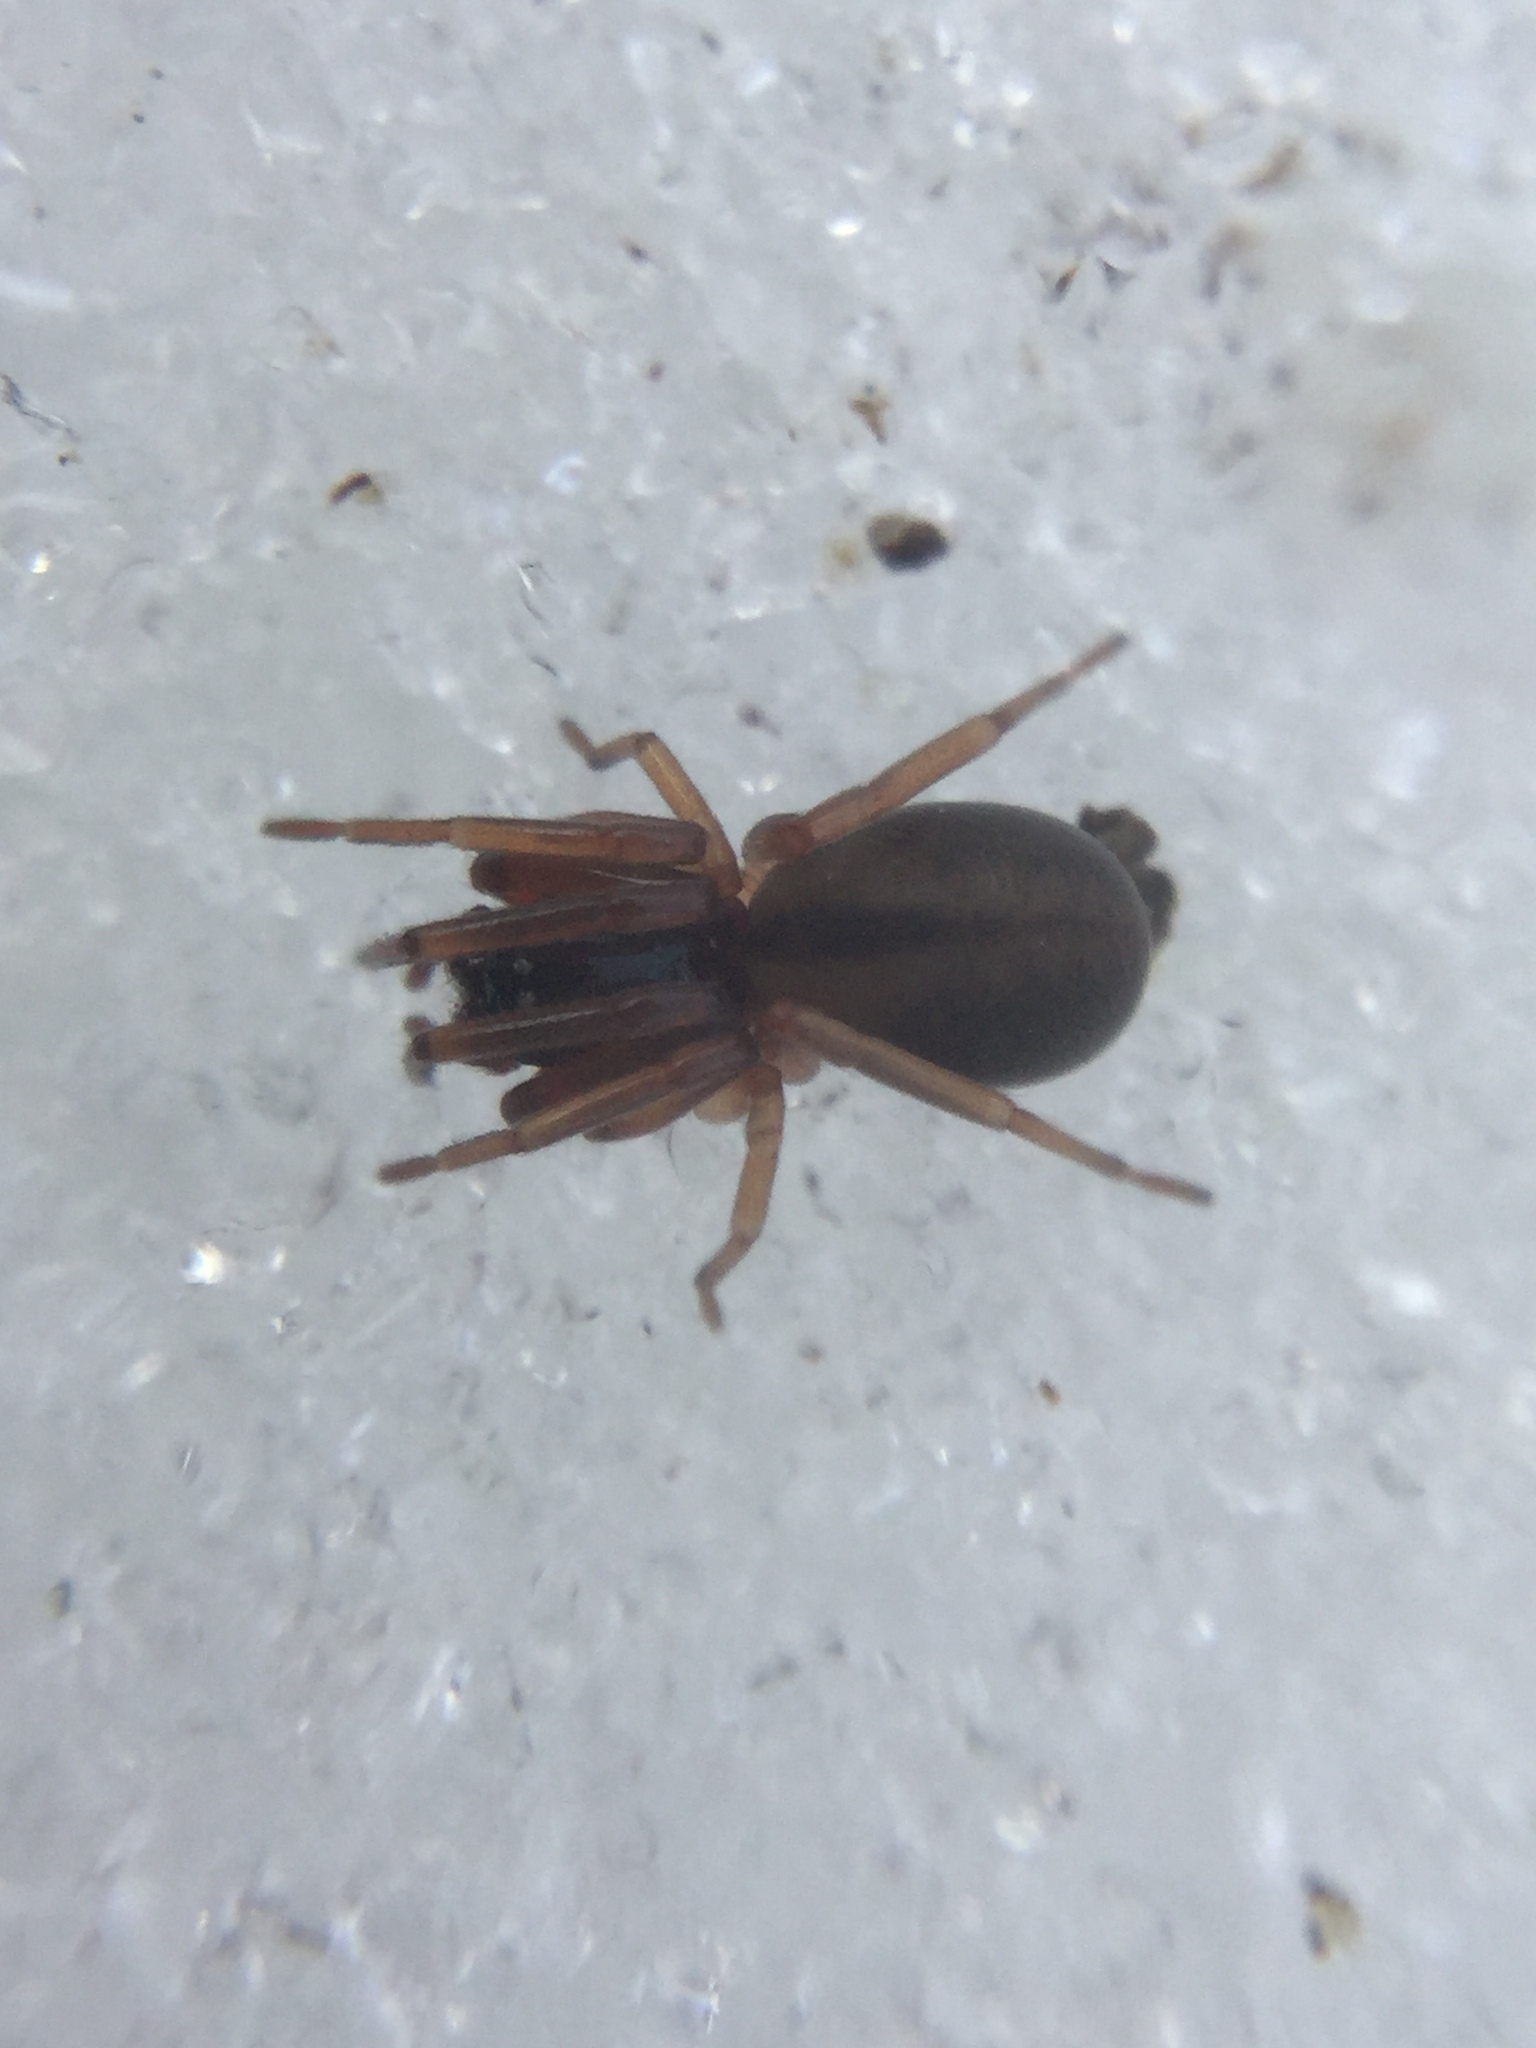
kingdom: Animalia
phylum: Arthropoda
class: Arachnida
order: Araneae
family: Trachelidae
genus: Meriola
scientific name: Meriola decepta
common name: Corinnid sac spiders
